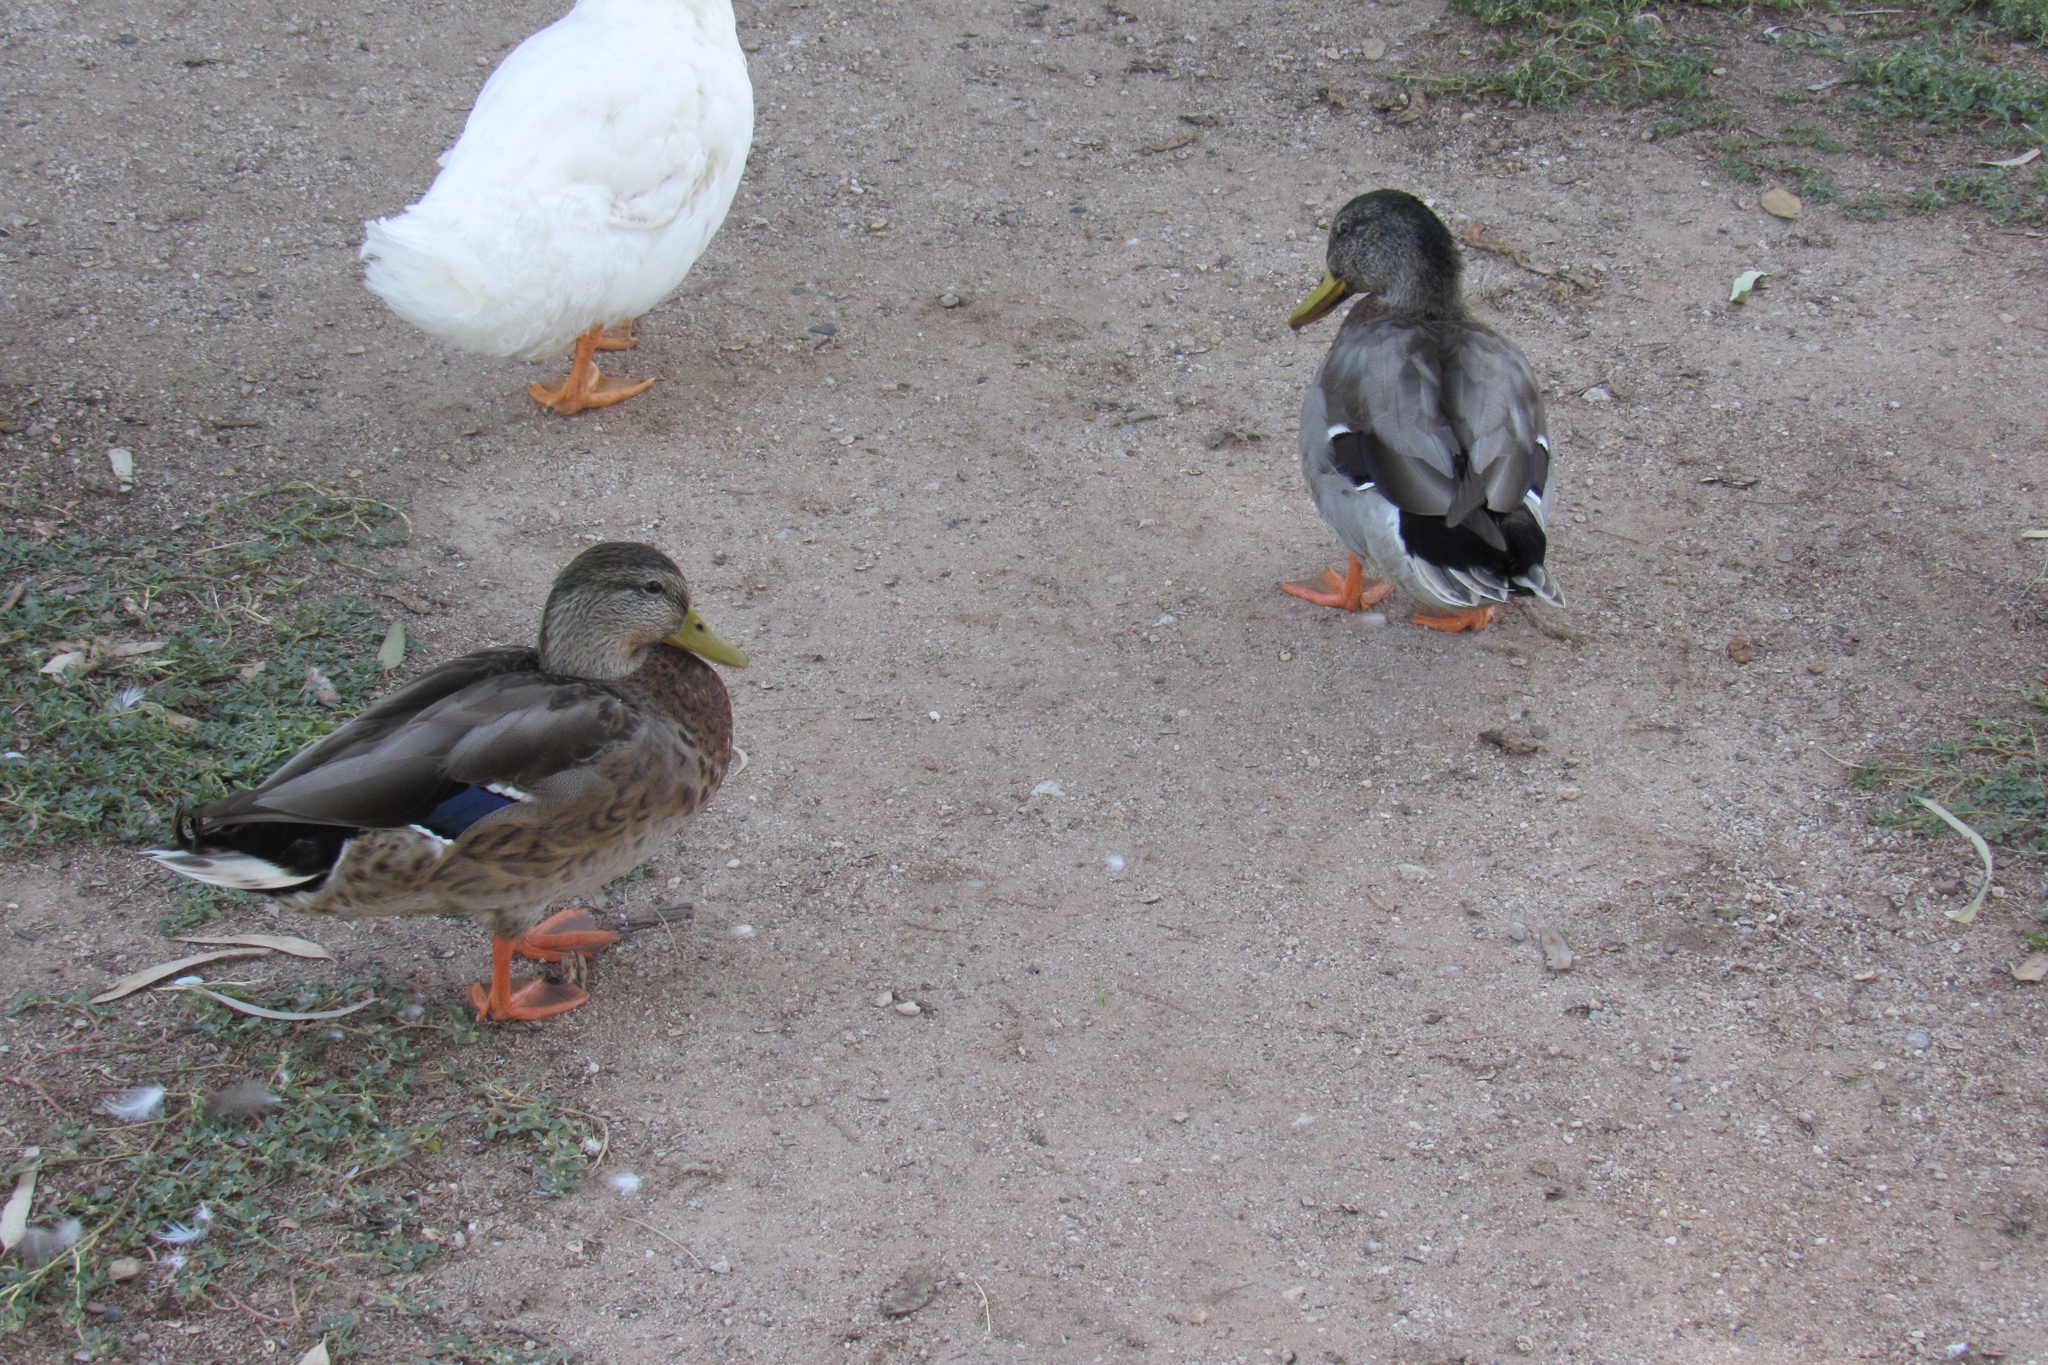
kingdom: Animalia
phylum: Chordata
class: Aves
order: Anseriformes
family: Anatidae
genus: Anas
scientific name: Anas platyrhynchos
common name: Mallard
